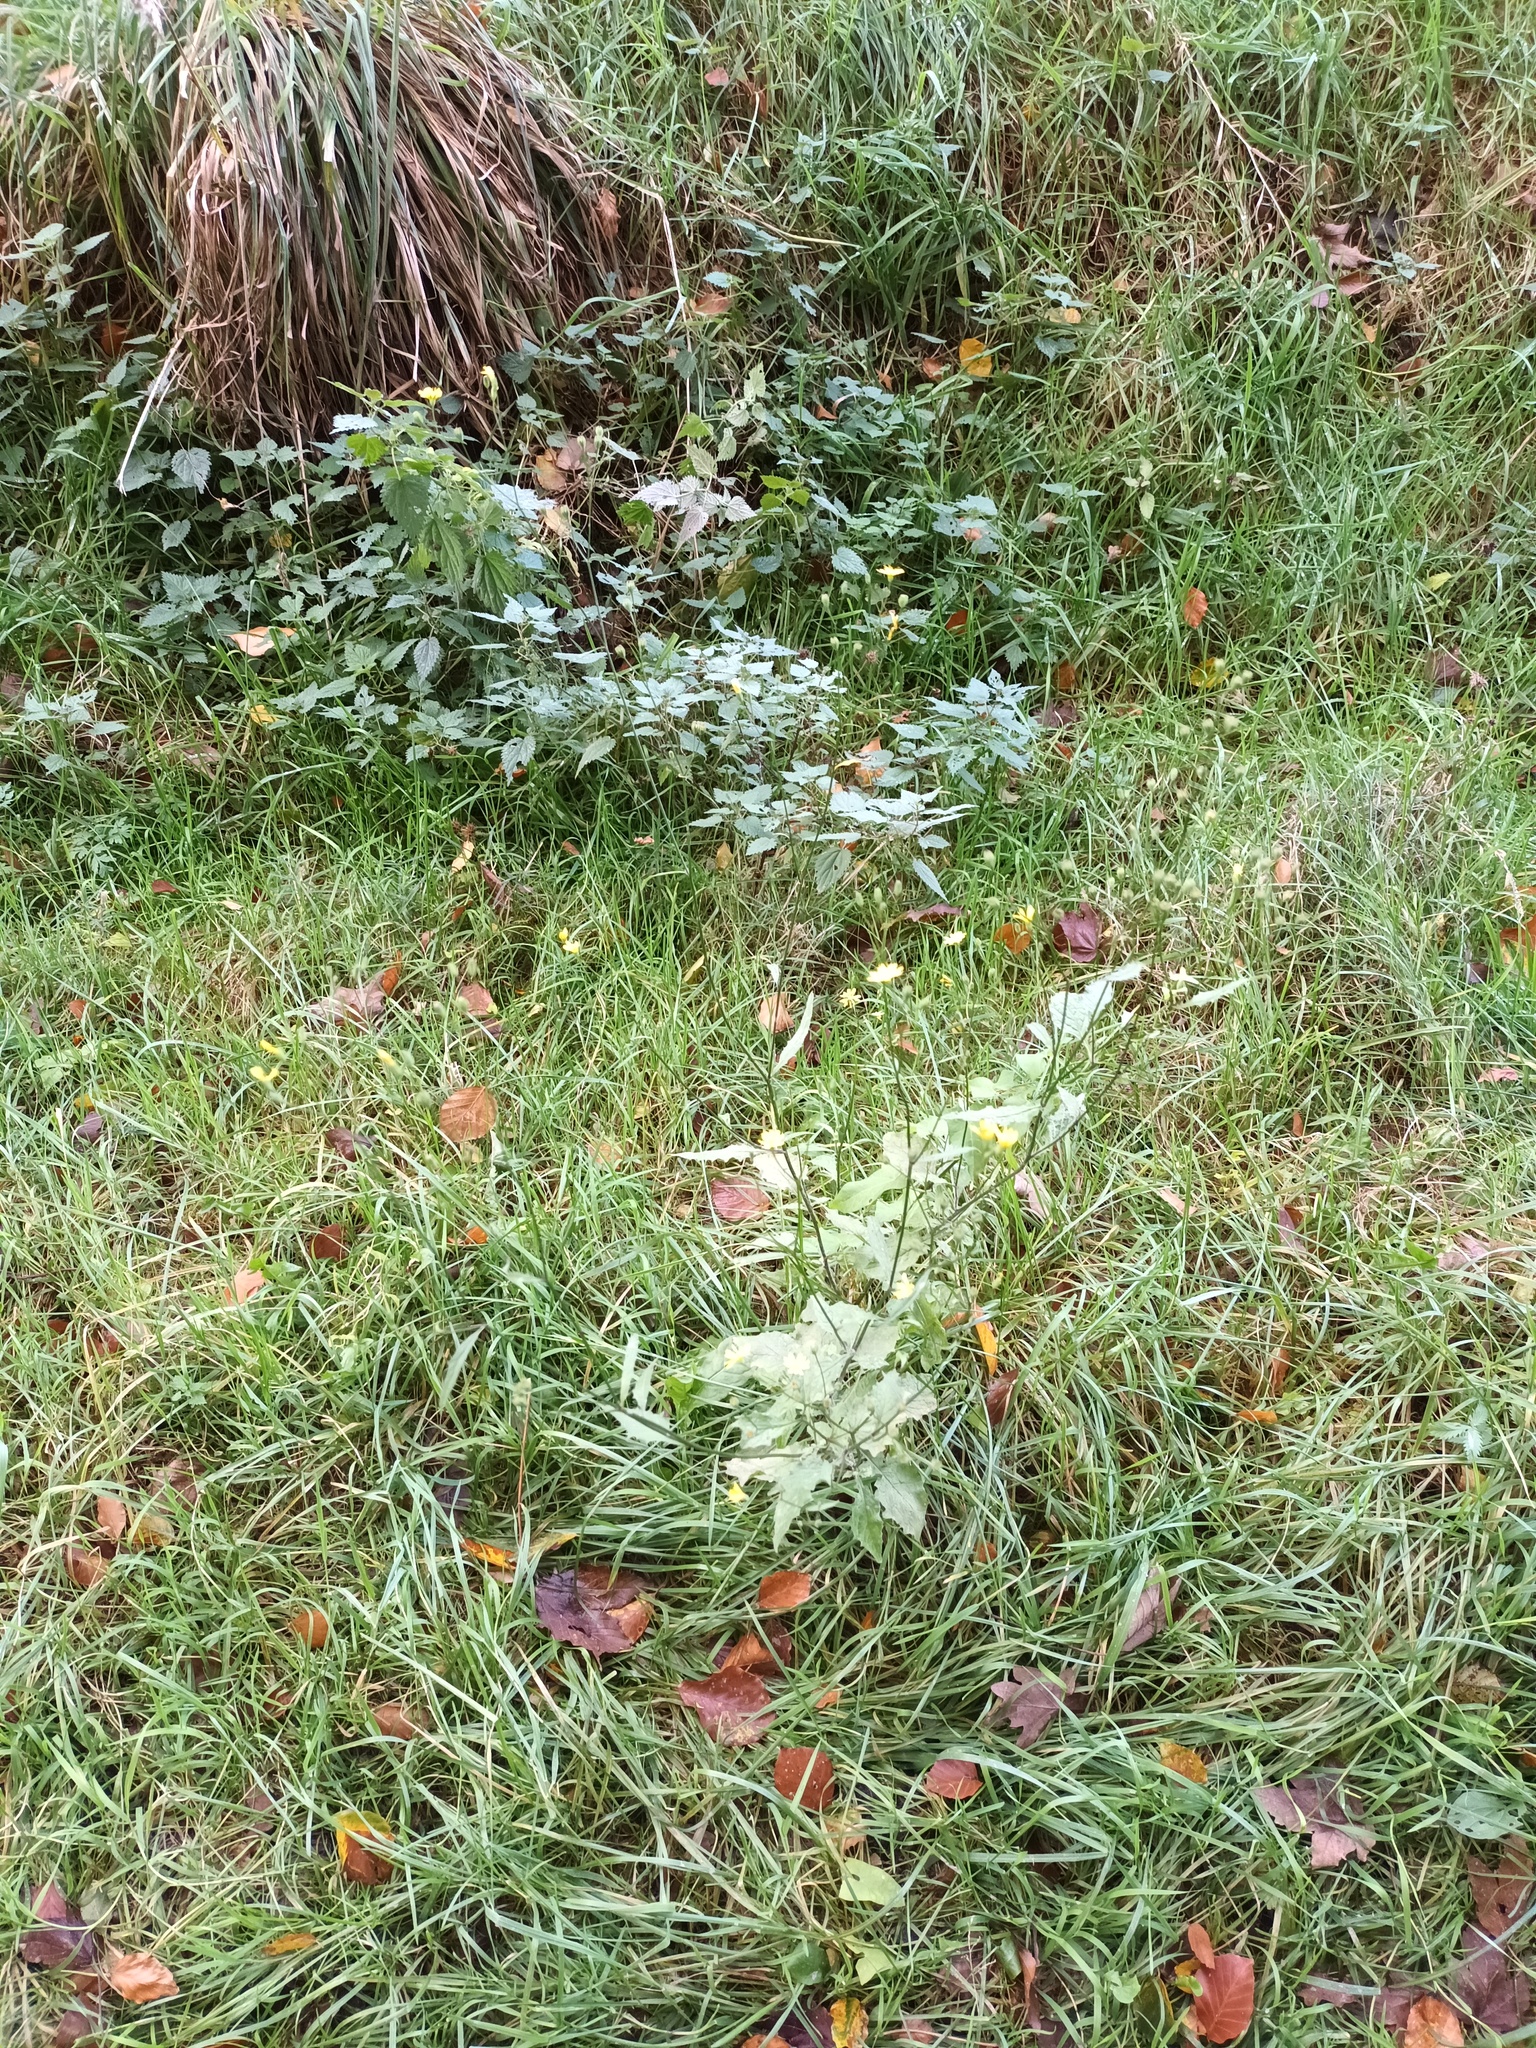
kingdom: Plantae
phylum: Tracheophyta
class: Magnoliopsida
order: Asterales
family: Asteraceae
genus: Lapsana
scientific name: Lapsana communis
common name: Nipplewort
